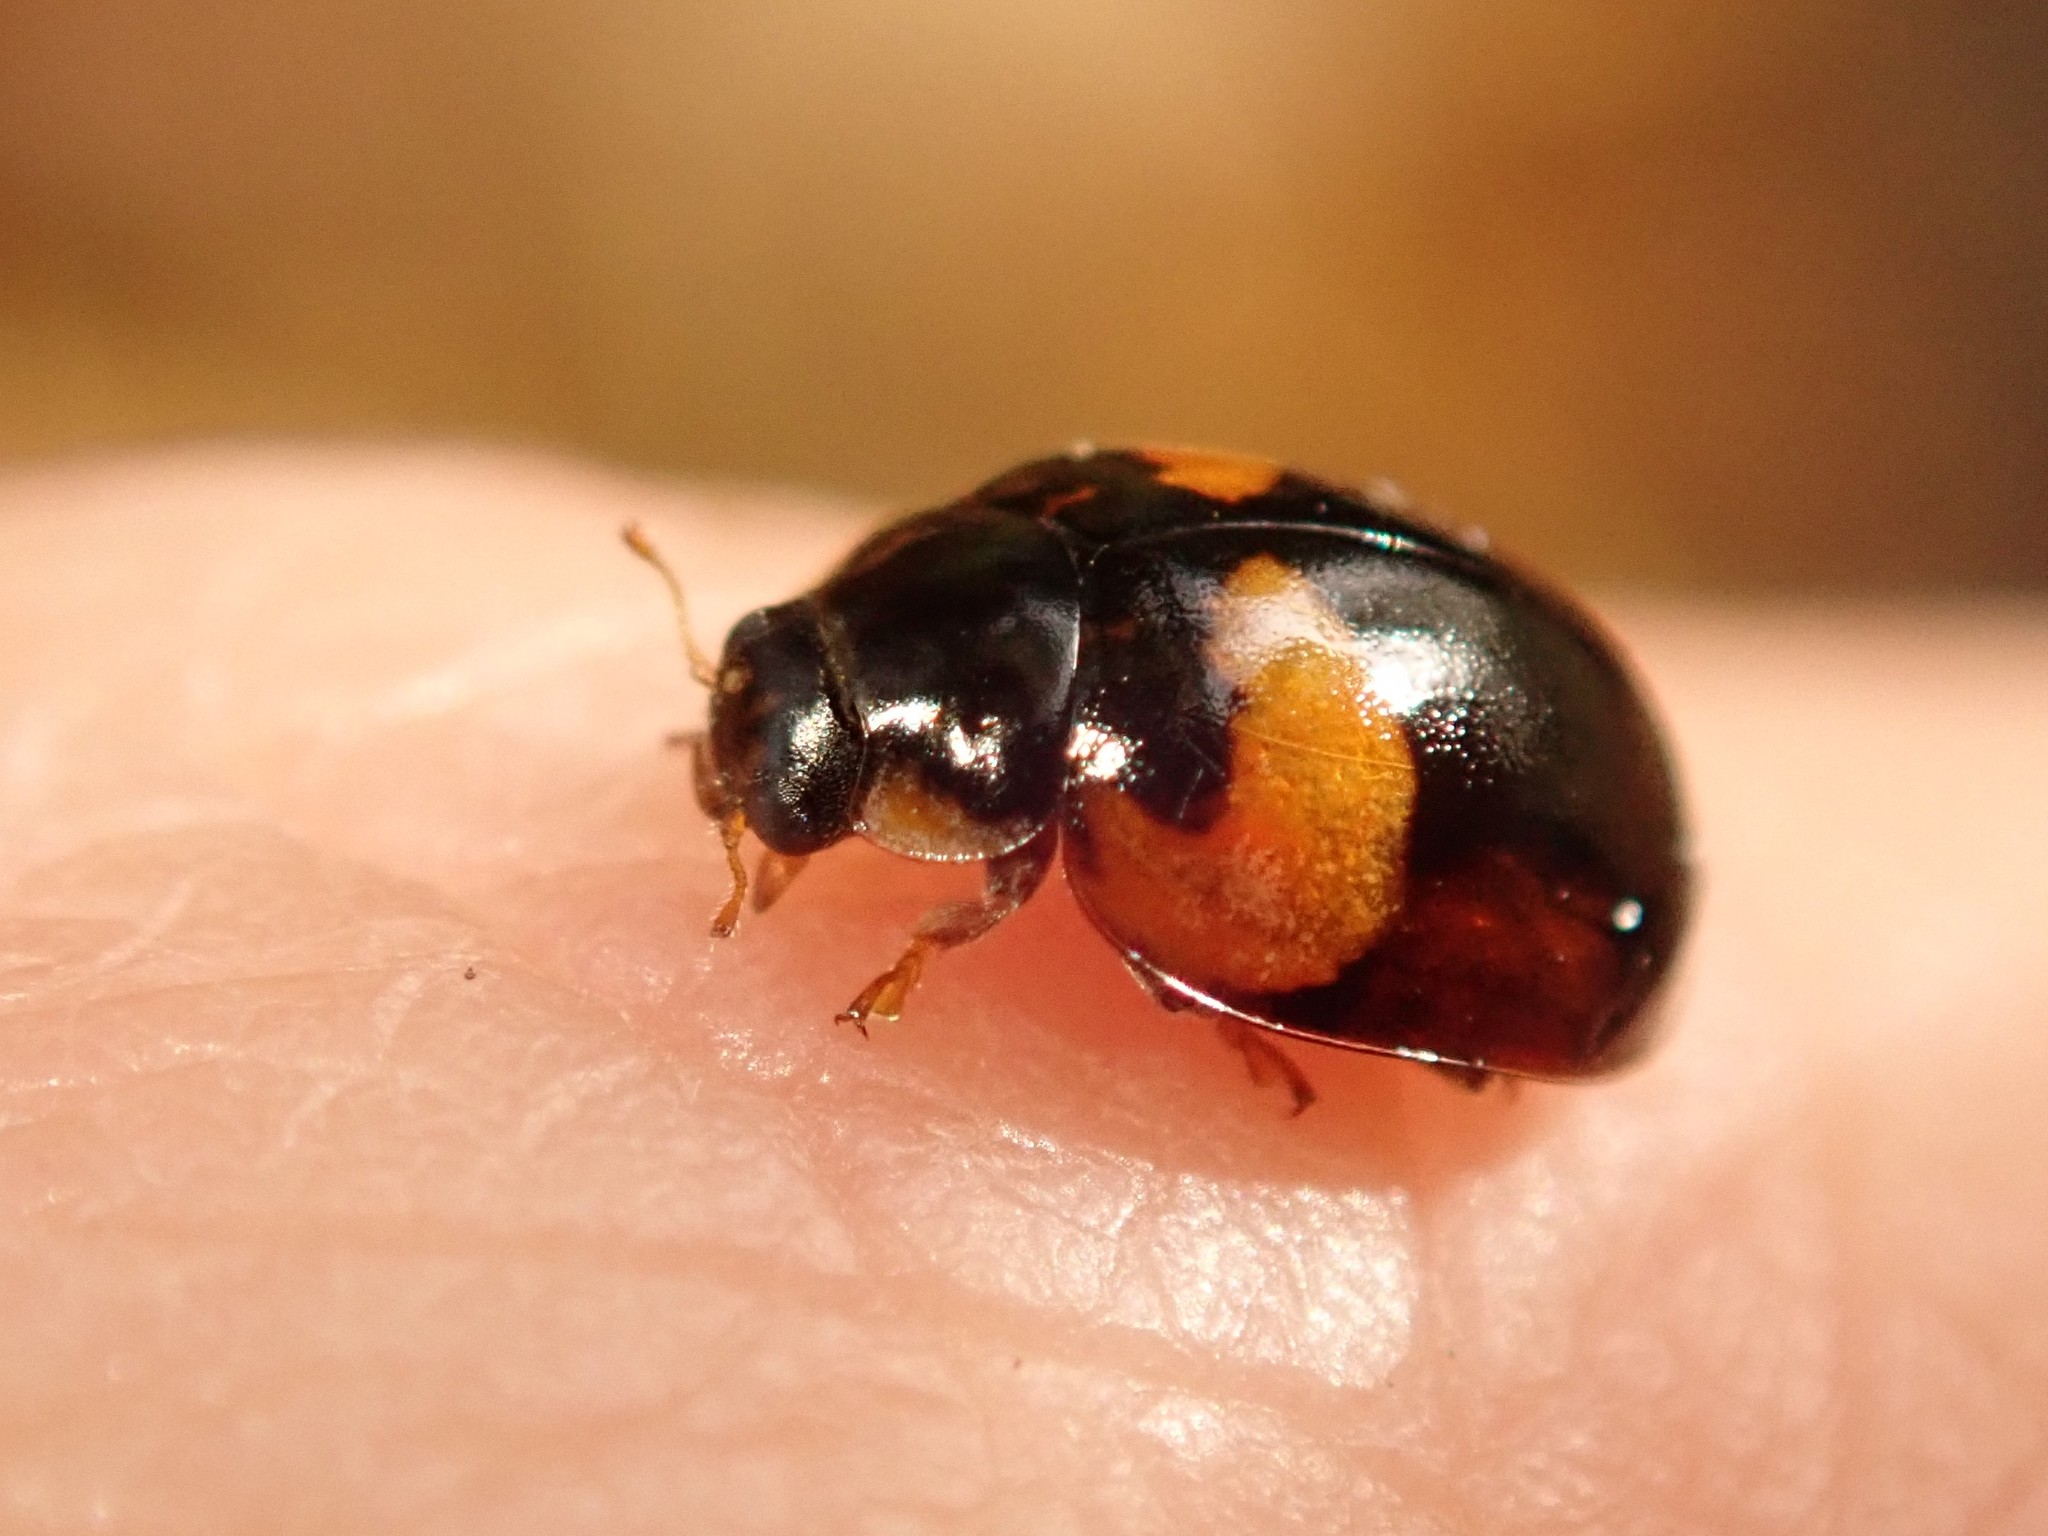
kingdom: Animalia
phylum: Arthropoda
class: Insecta
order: Coleoptera
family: Coccinellidae
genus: Adalia
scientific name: Adalia decempunctata
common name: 10-spot ladybird
